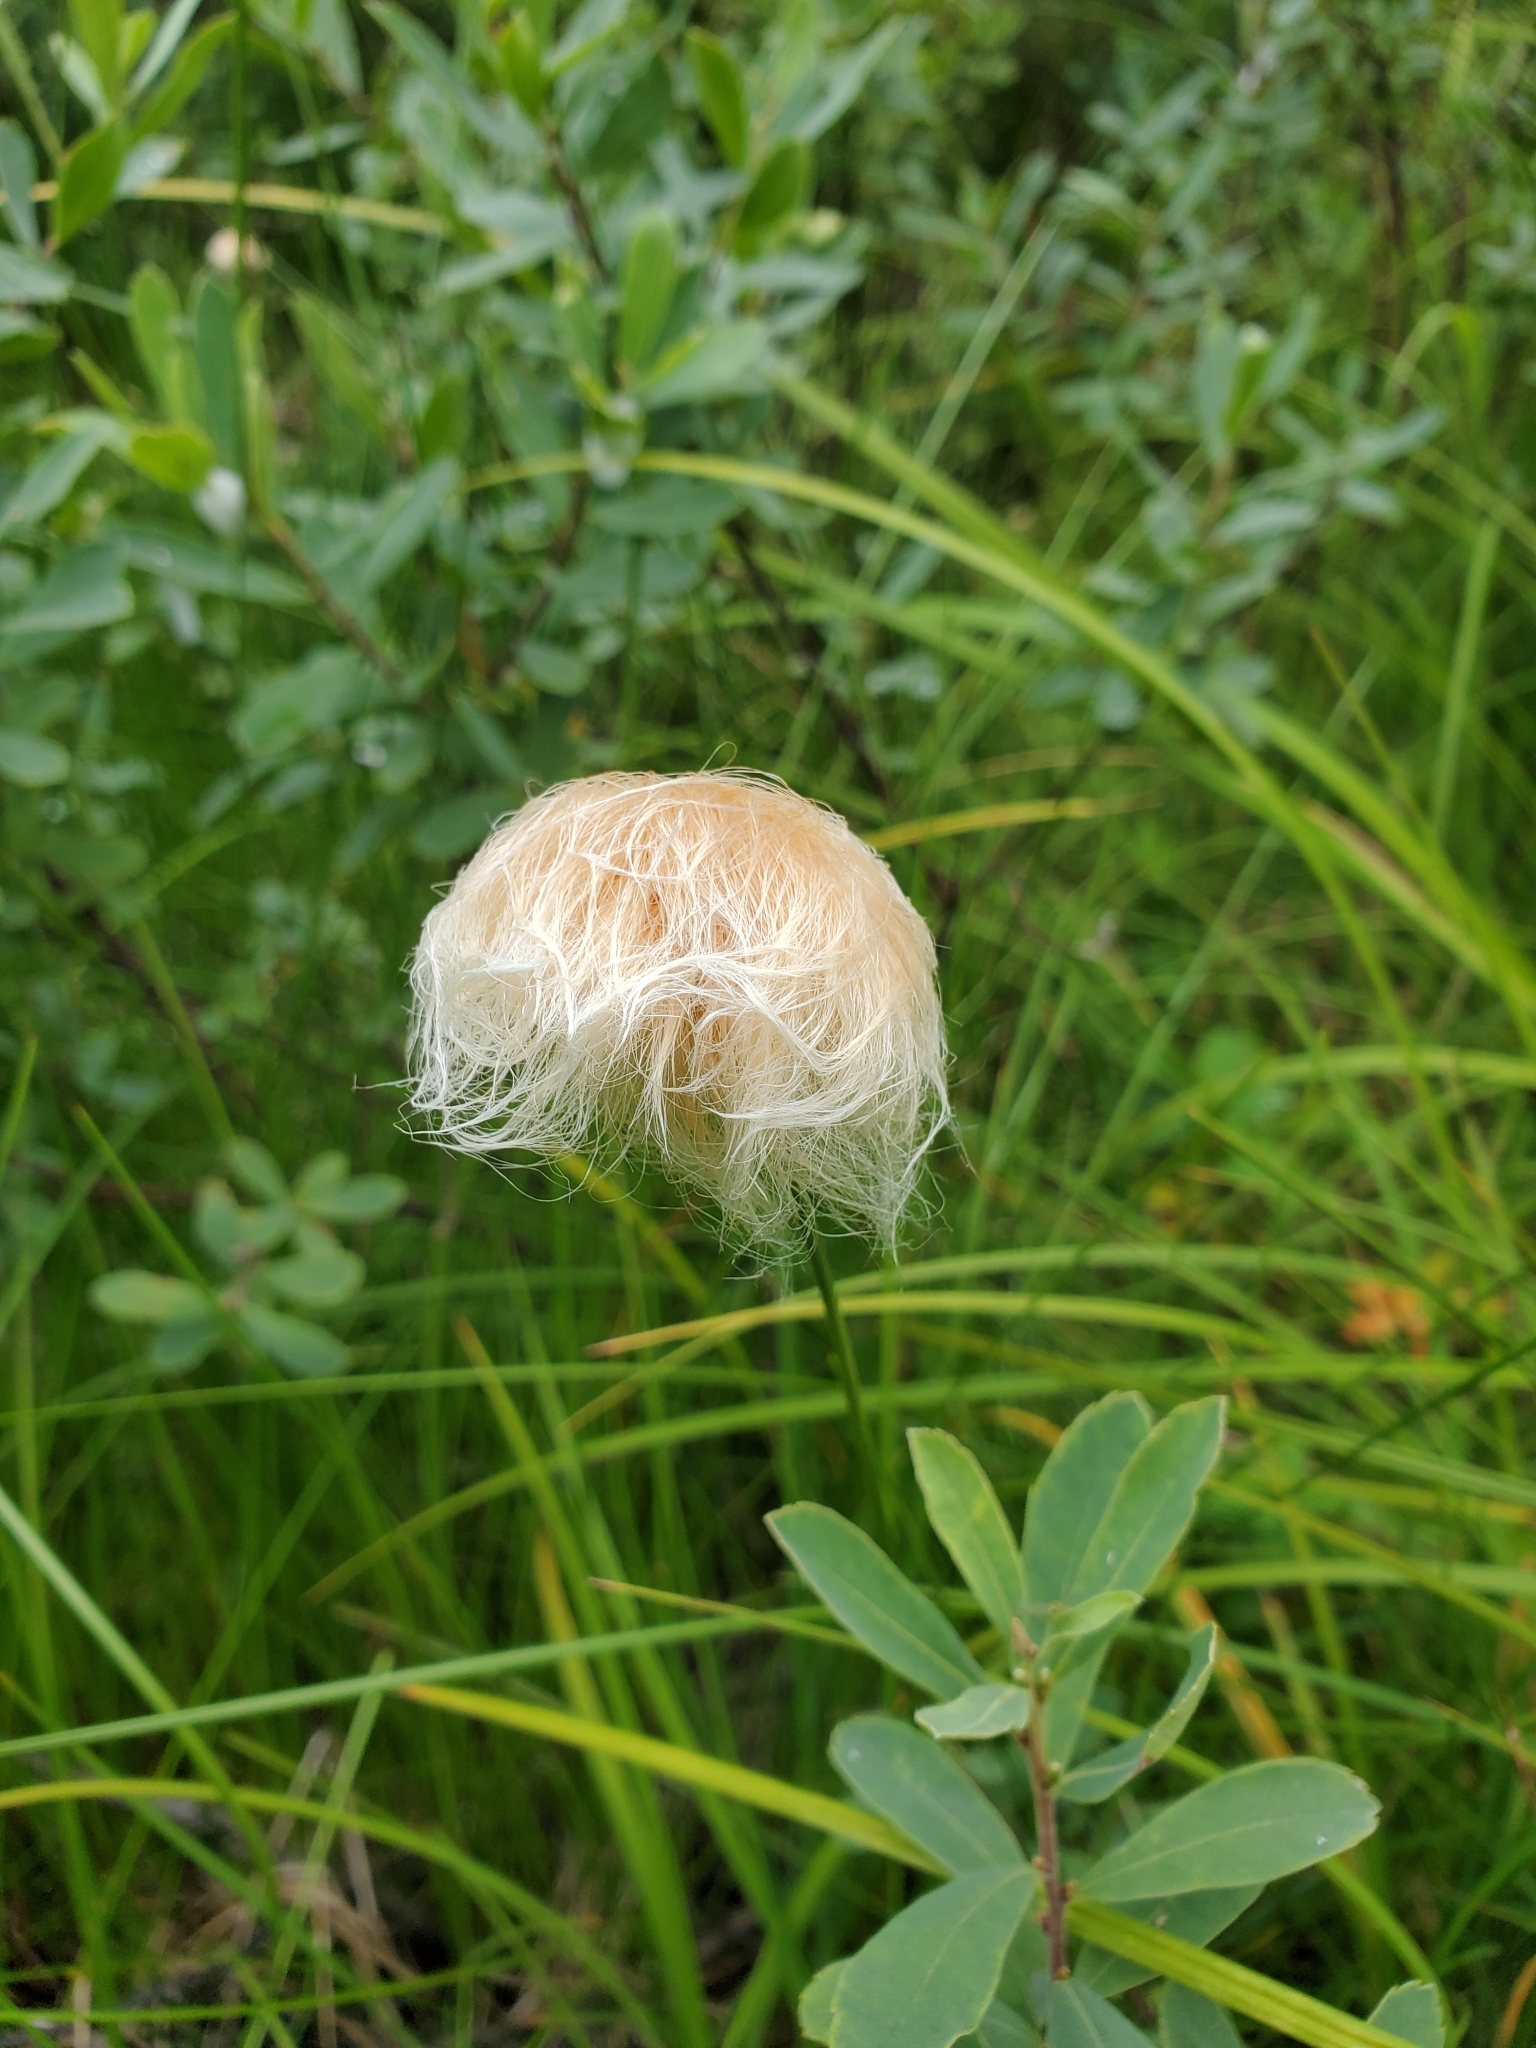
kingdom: Plantae
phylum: Tracheophyta
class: Liliopsida
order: Poales
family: Cyperaceae
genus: Eriophorum
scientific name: Eriophorum chamissonis
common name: Chamisso's cottongrass
